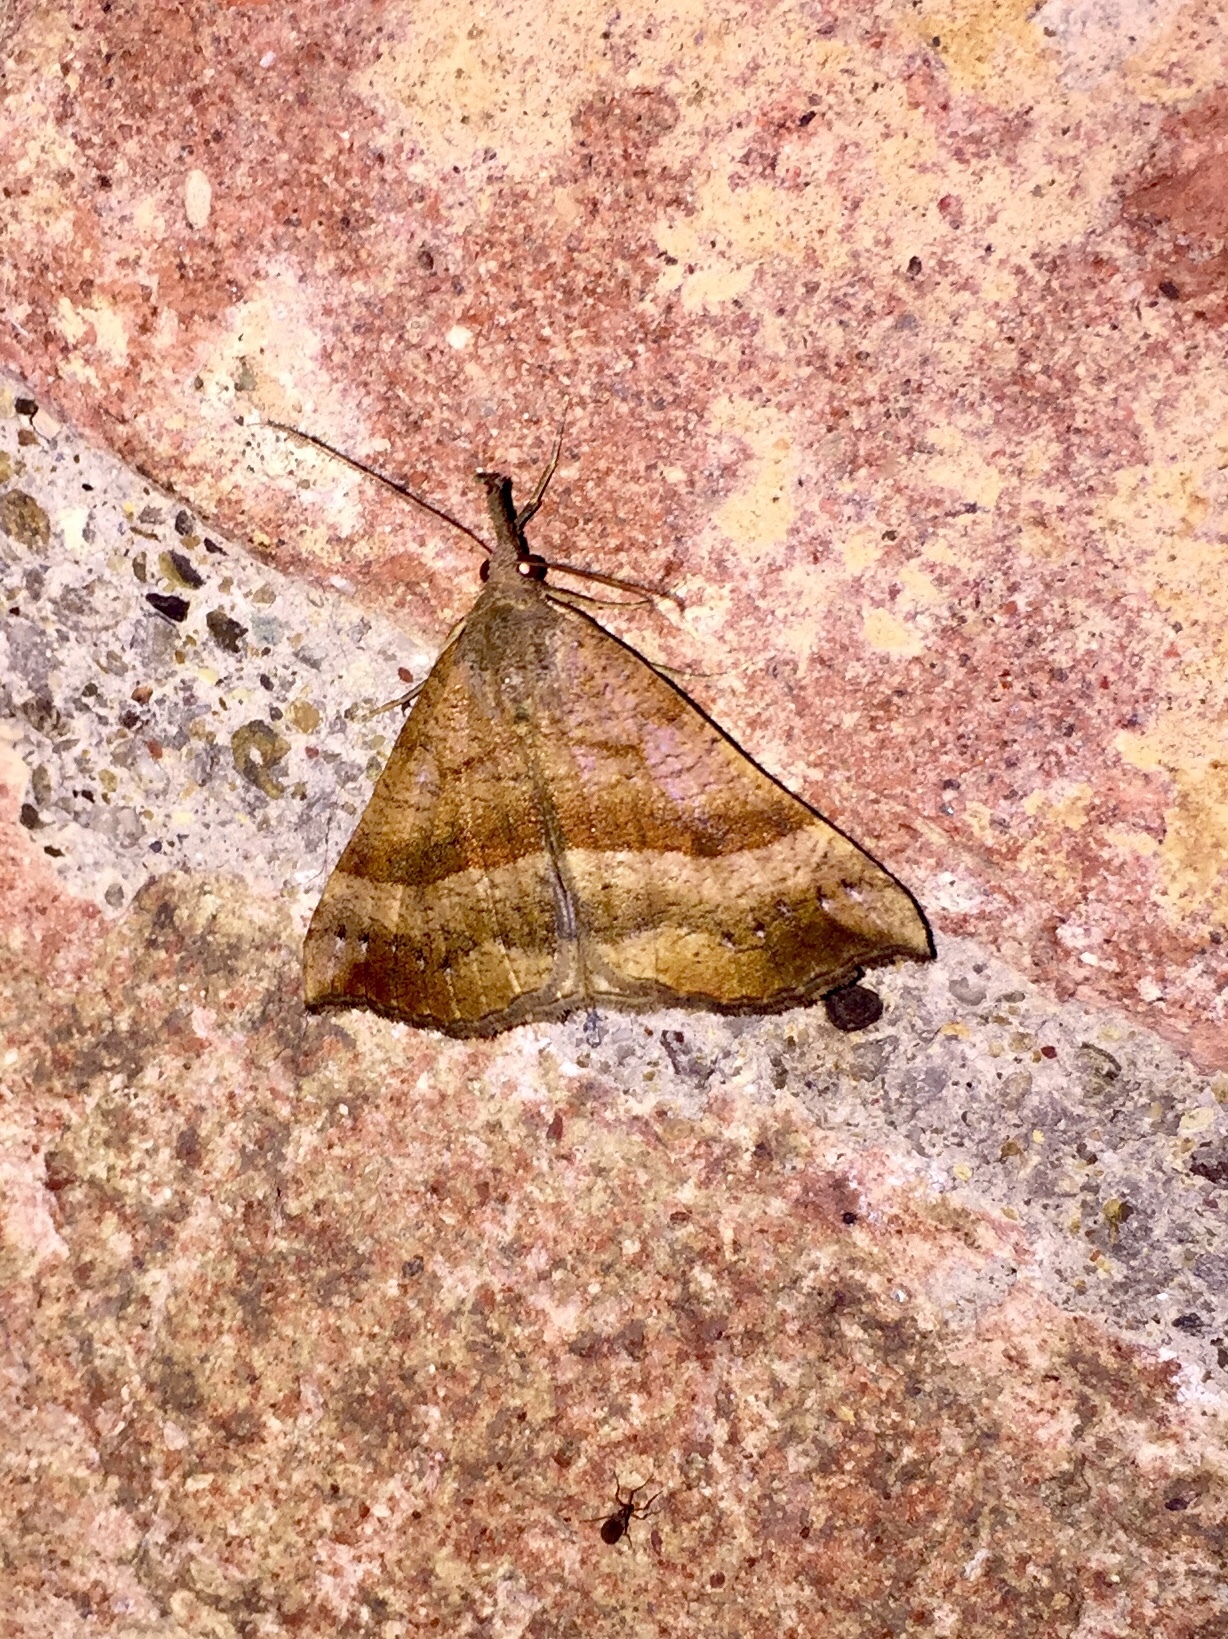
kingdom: Animalia
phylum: Arthropoda
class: Insecta
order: Lepidoptera
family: Erebidae
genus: Hypena
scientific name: Hypena proboscidalis
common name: Snout
